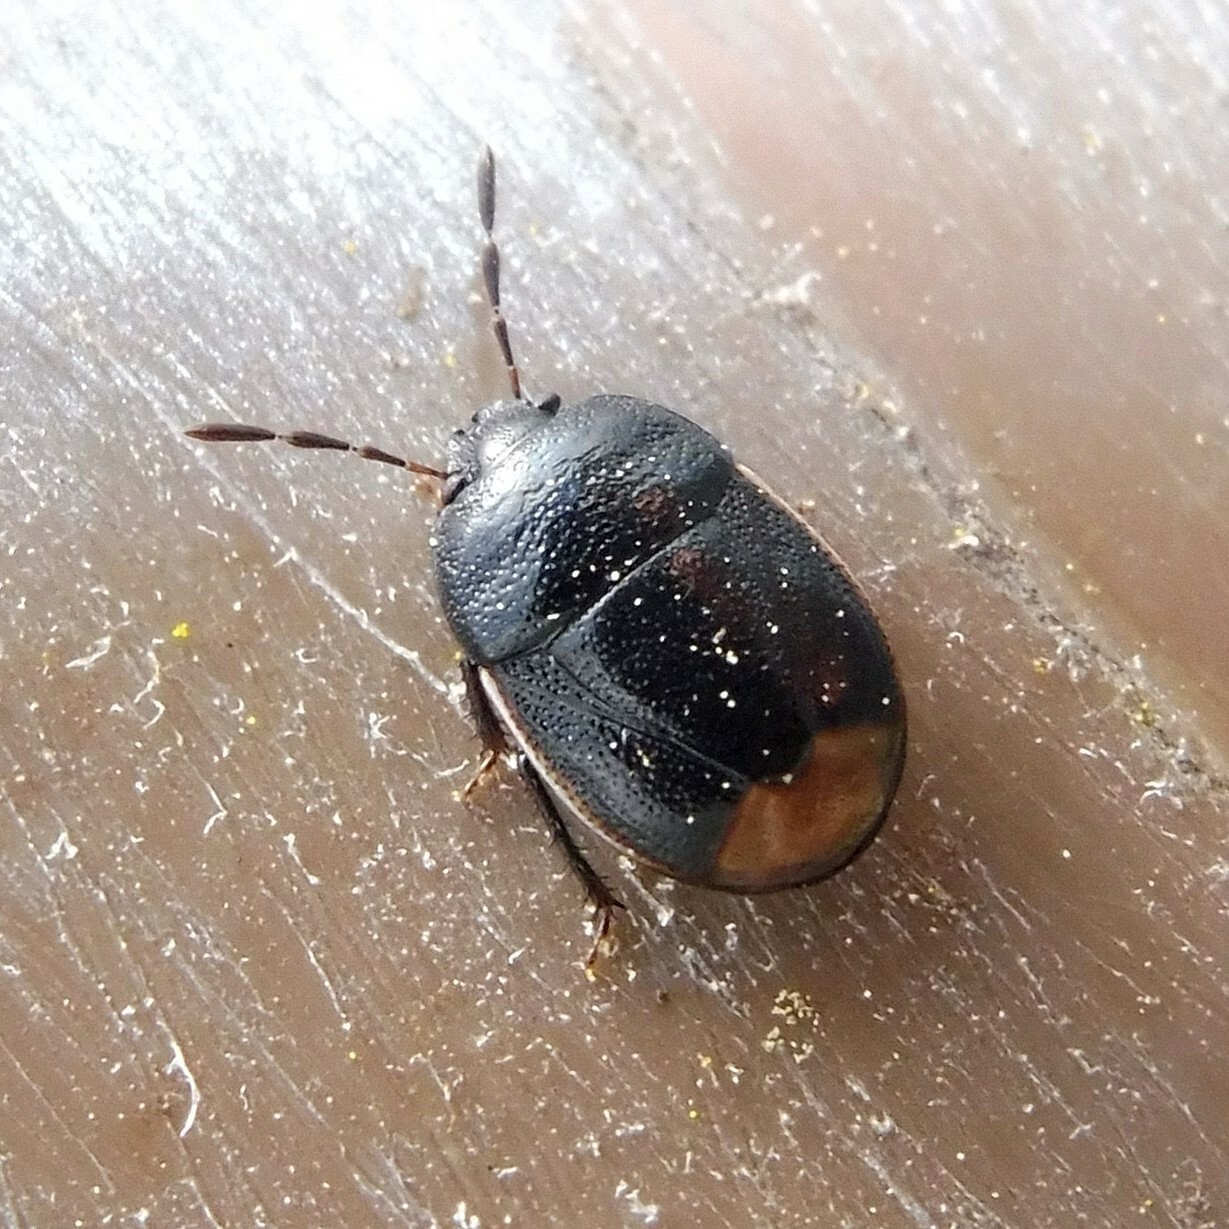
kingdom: Animalia
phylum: Arthropoda
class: Insecta
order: Hemiptera
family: Cydnidae
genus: Legnotus
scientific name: Legnotus limbosus
